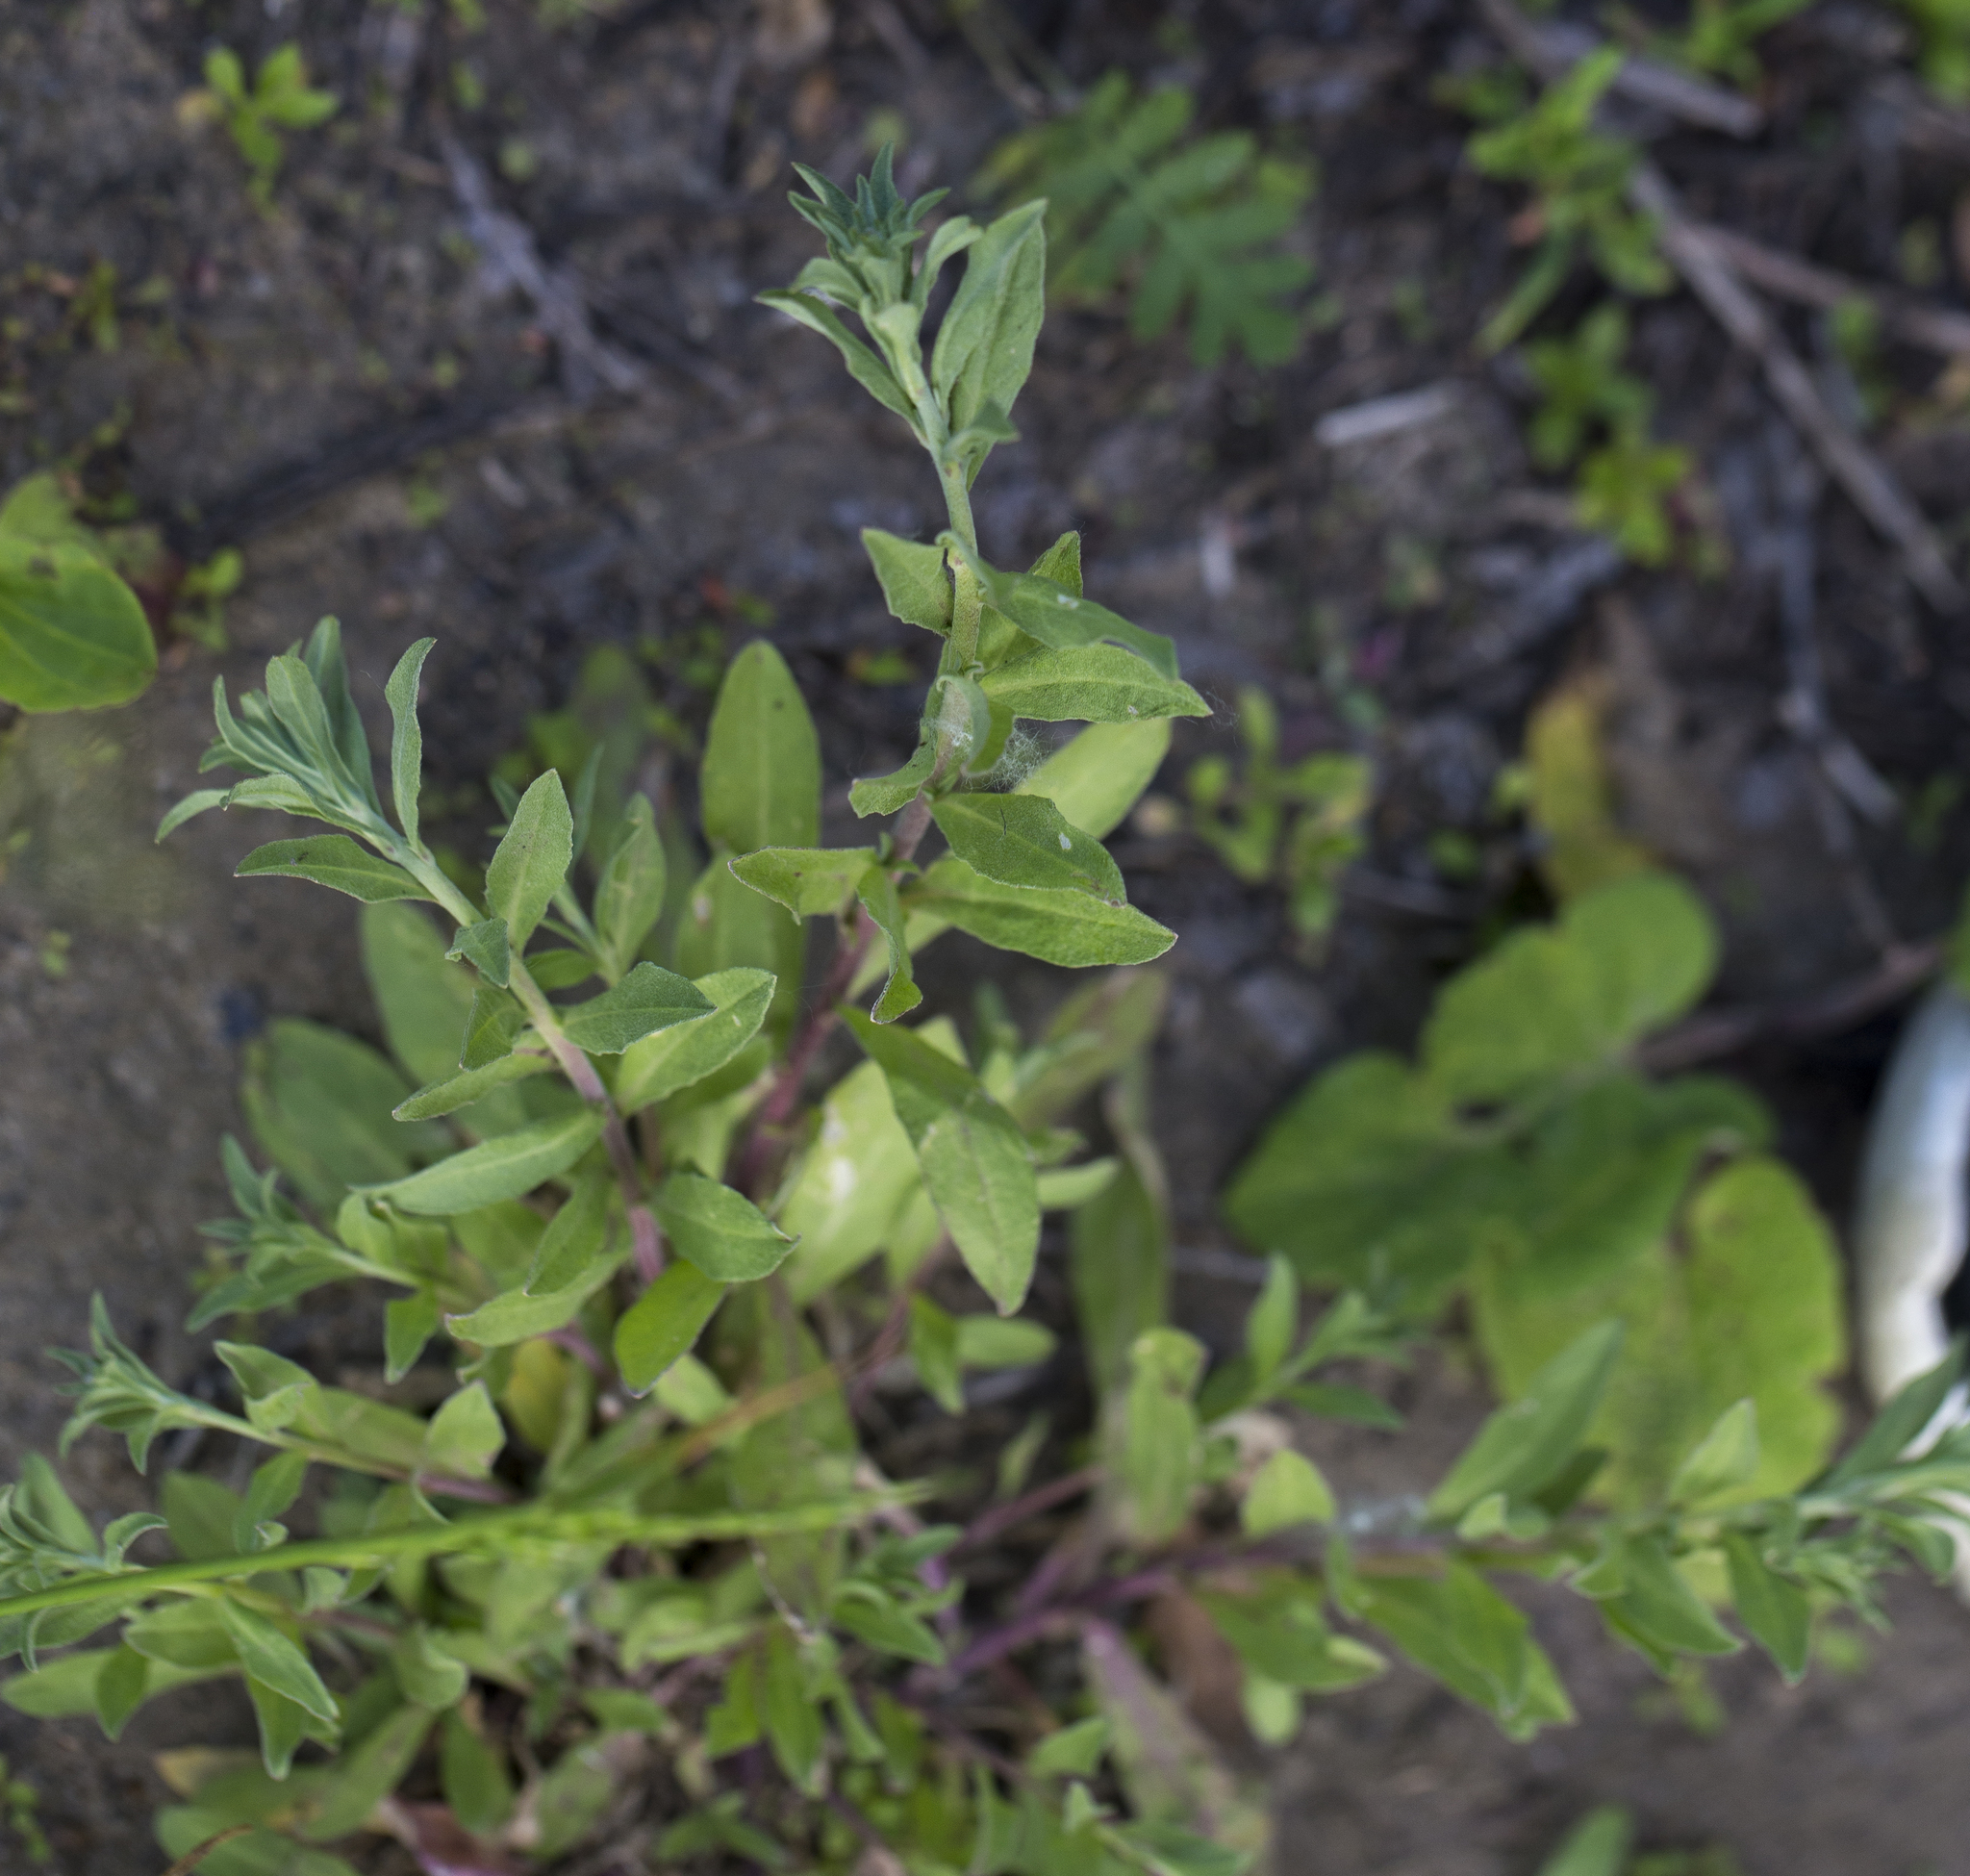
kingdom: Plantae
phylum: Tracheophyta
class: Magnoliopsida
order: Brassicales
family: Brassicaceae
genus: Berteroa
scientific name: Berteroa incana
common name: Hoary alison
